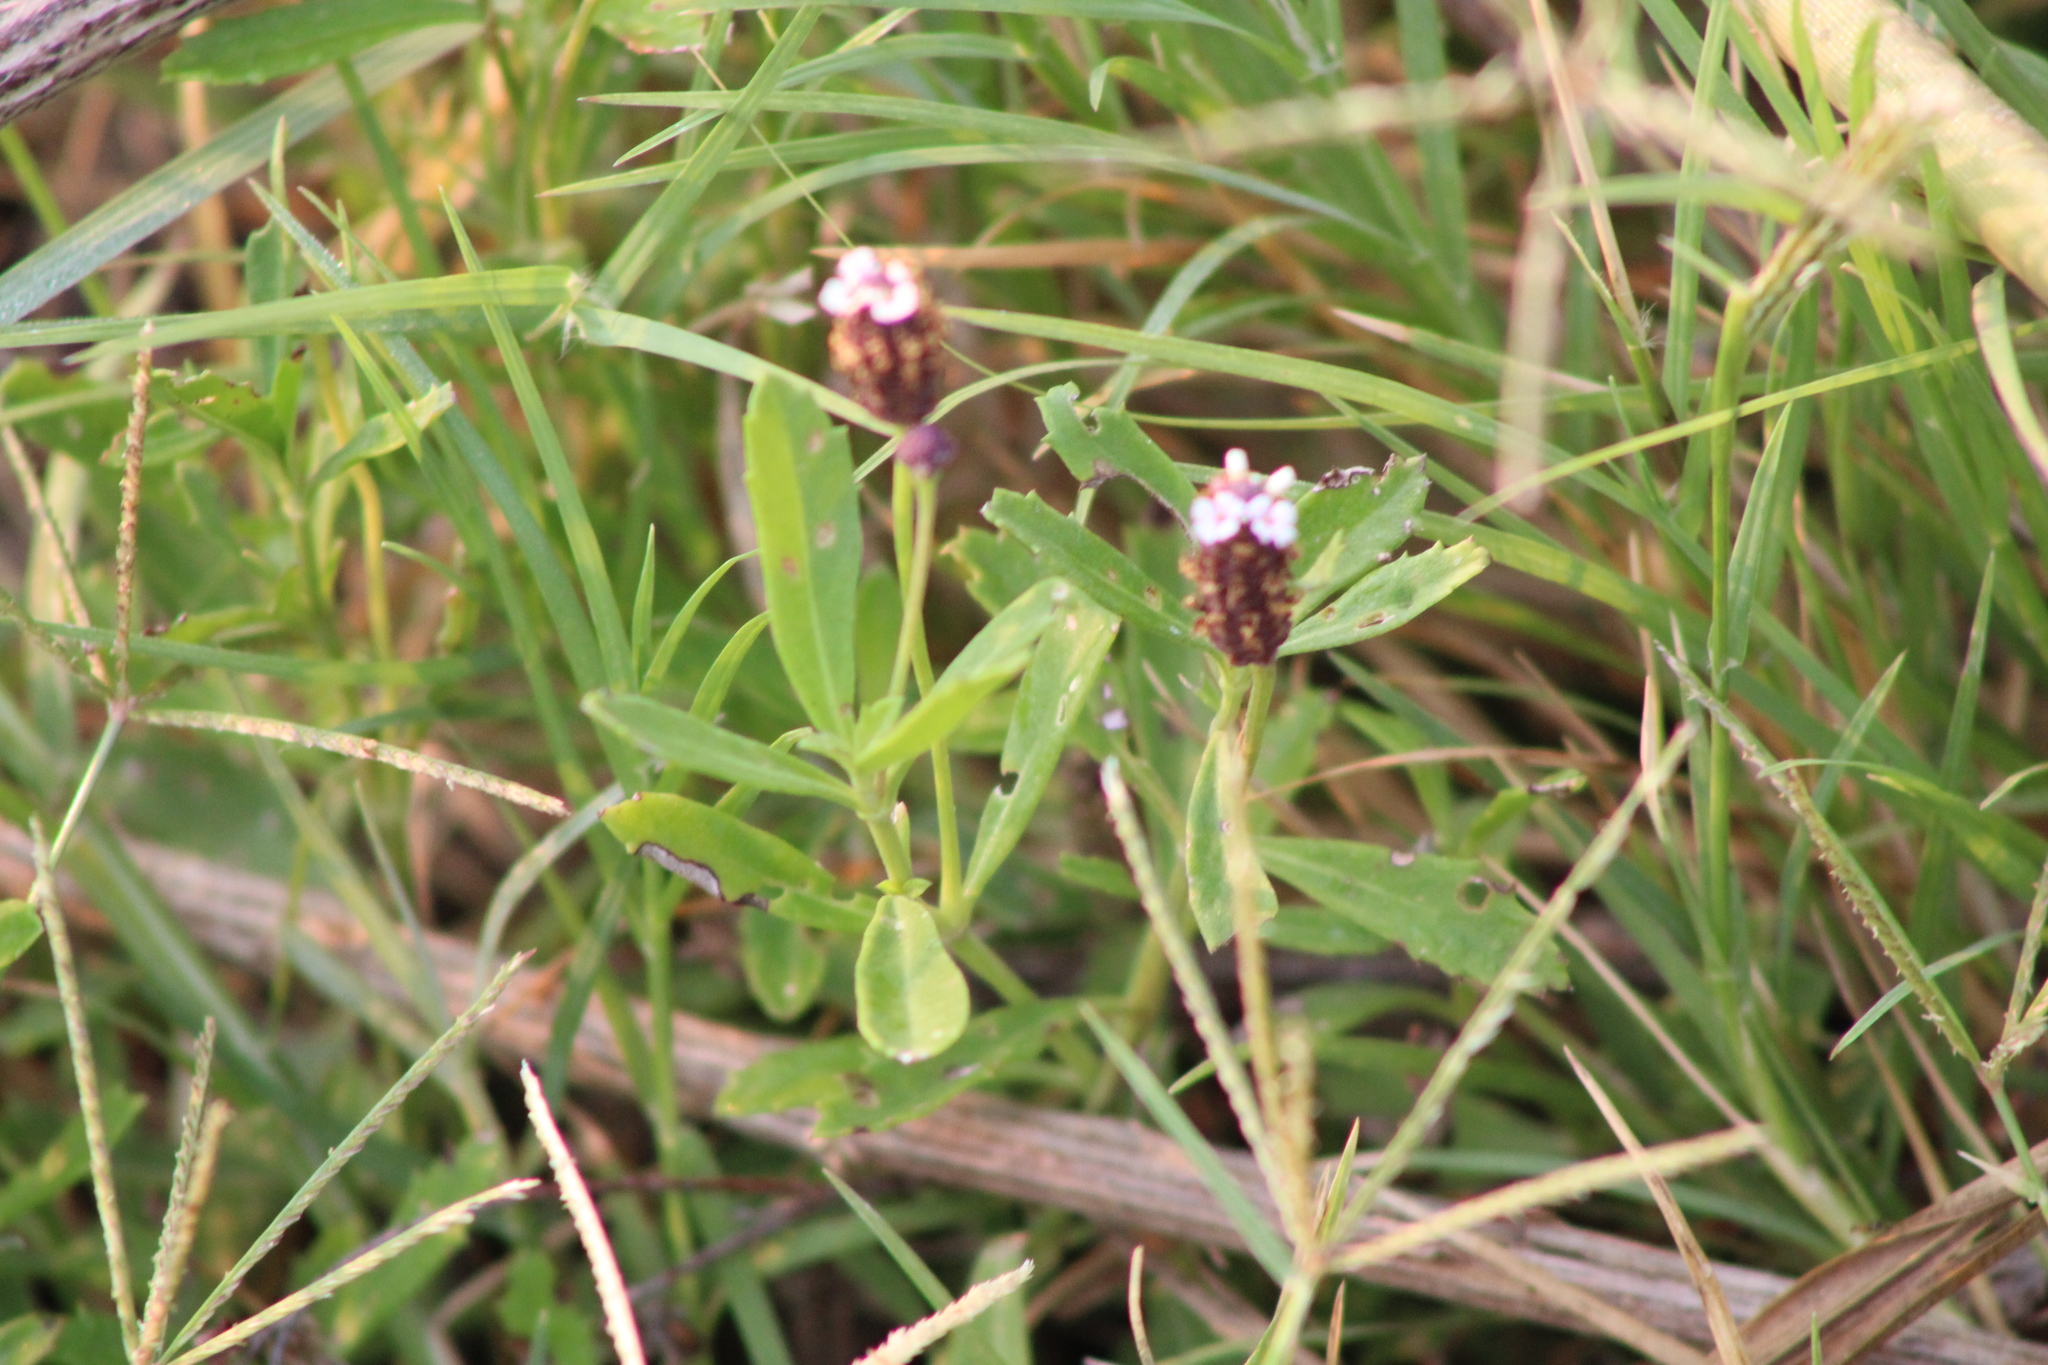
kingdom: Plantae
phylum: Tracheophyta
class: Magnoliopsida
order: Lamiales
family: Verbenaceae
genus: Phyla
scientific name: Phyla nodiflora
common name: Frogfruit
